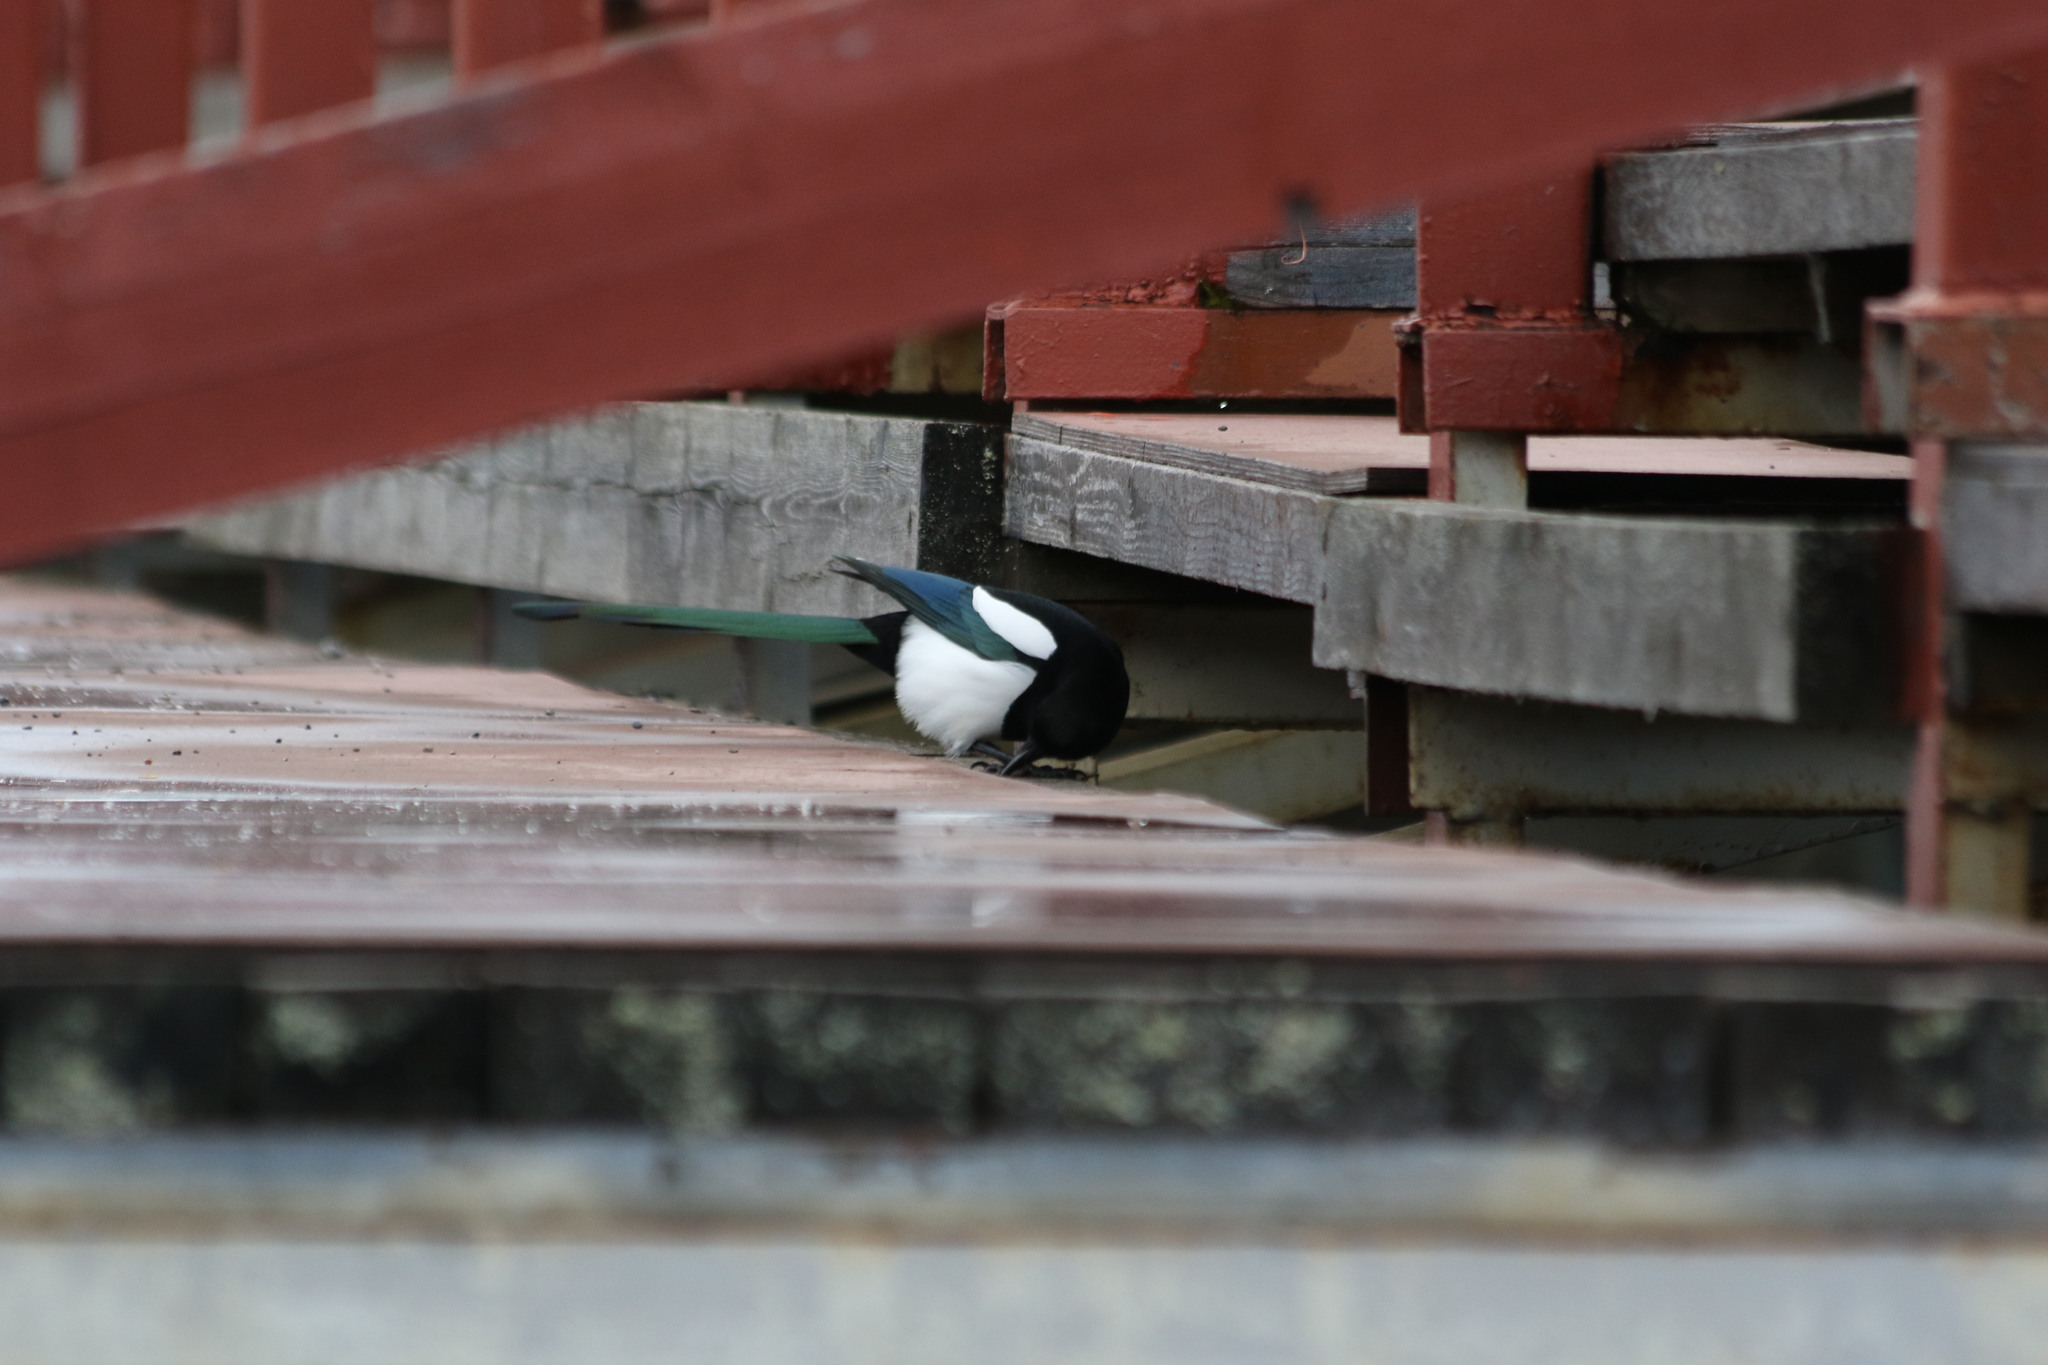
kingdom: Animalia
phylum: Chordata
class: Aves
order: Passeriformes
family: Corvidae
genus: Pica
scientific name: Pica pica
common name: Eurasian magpie
